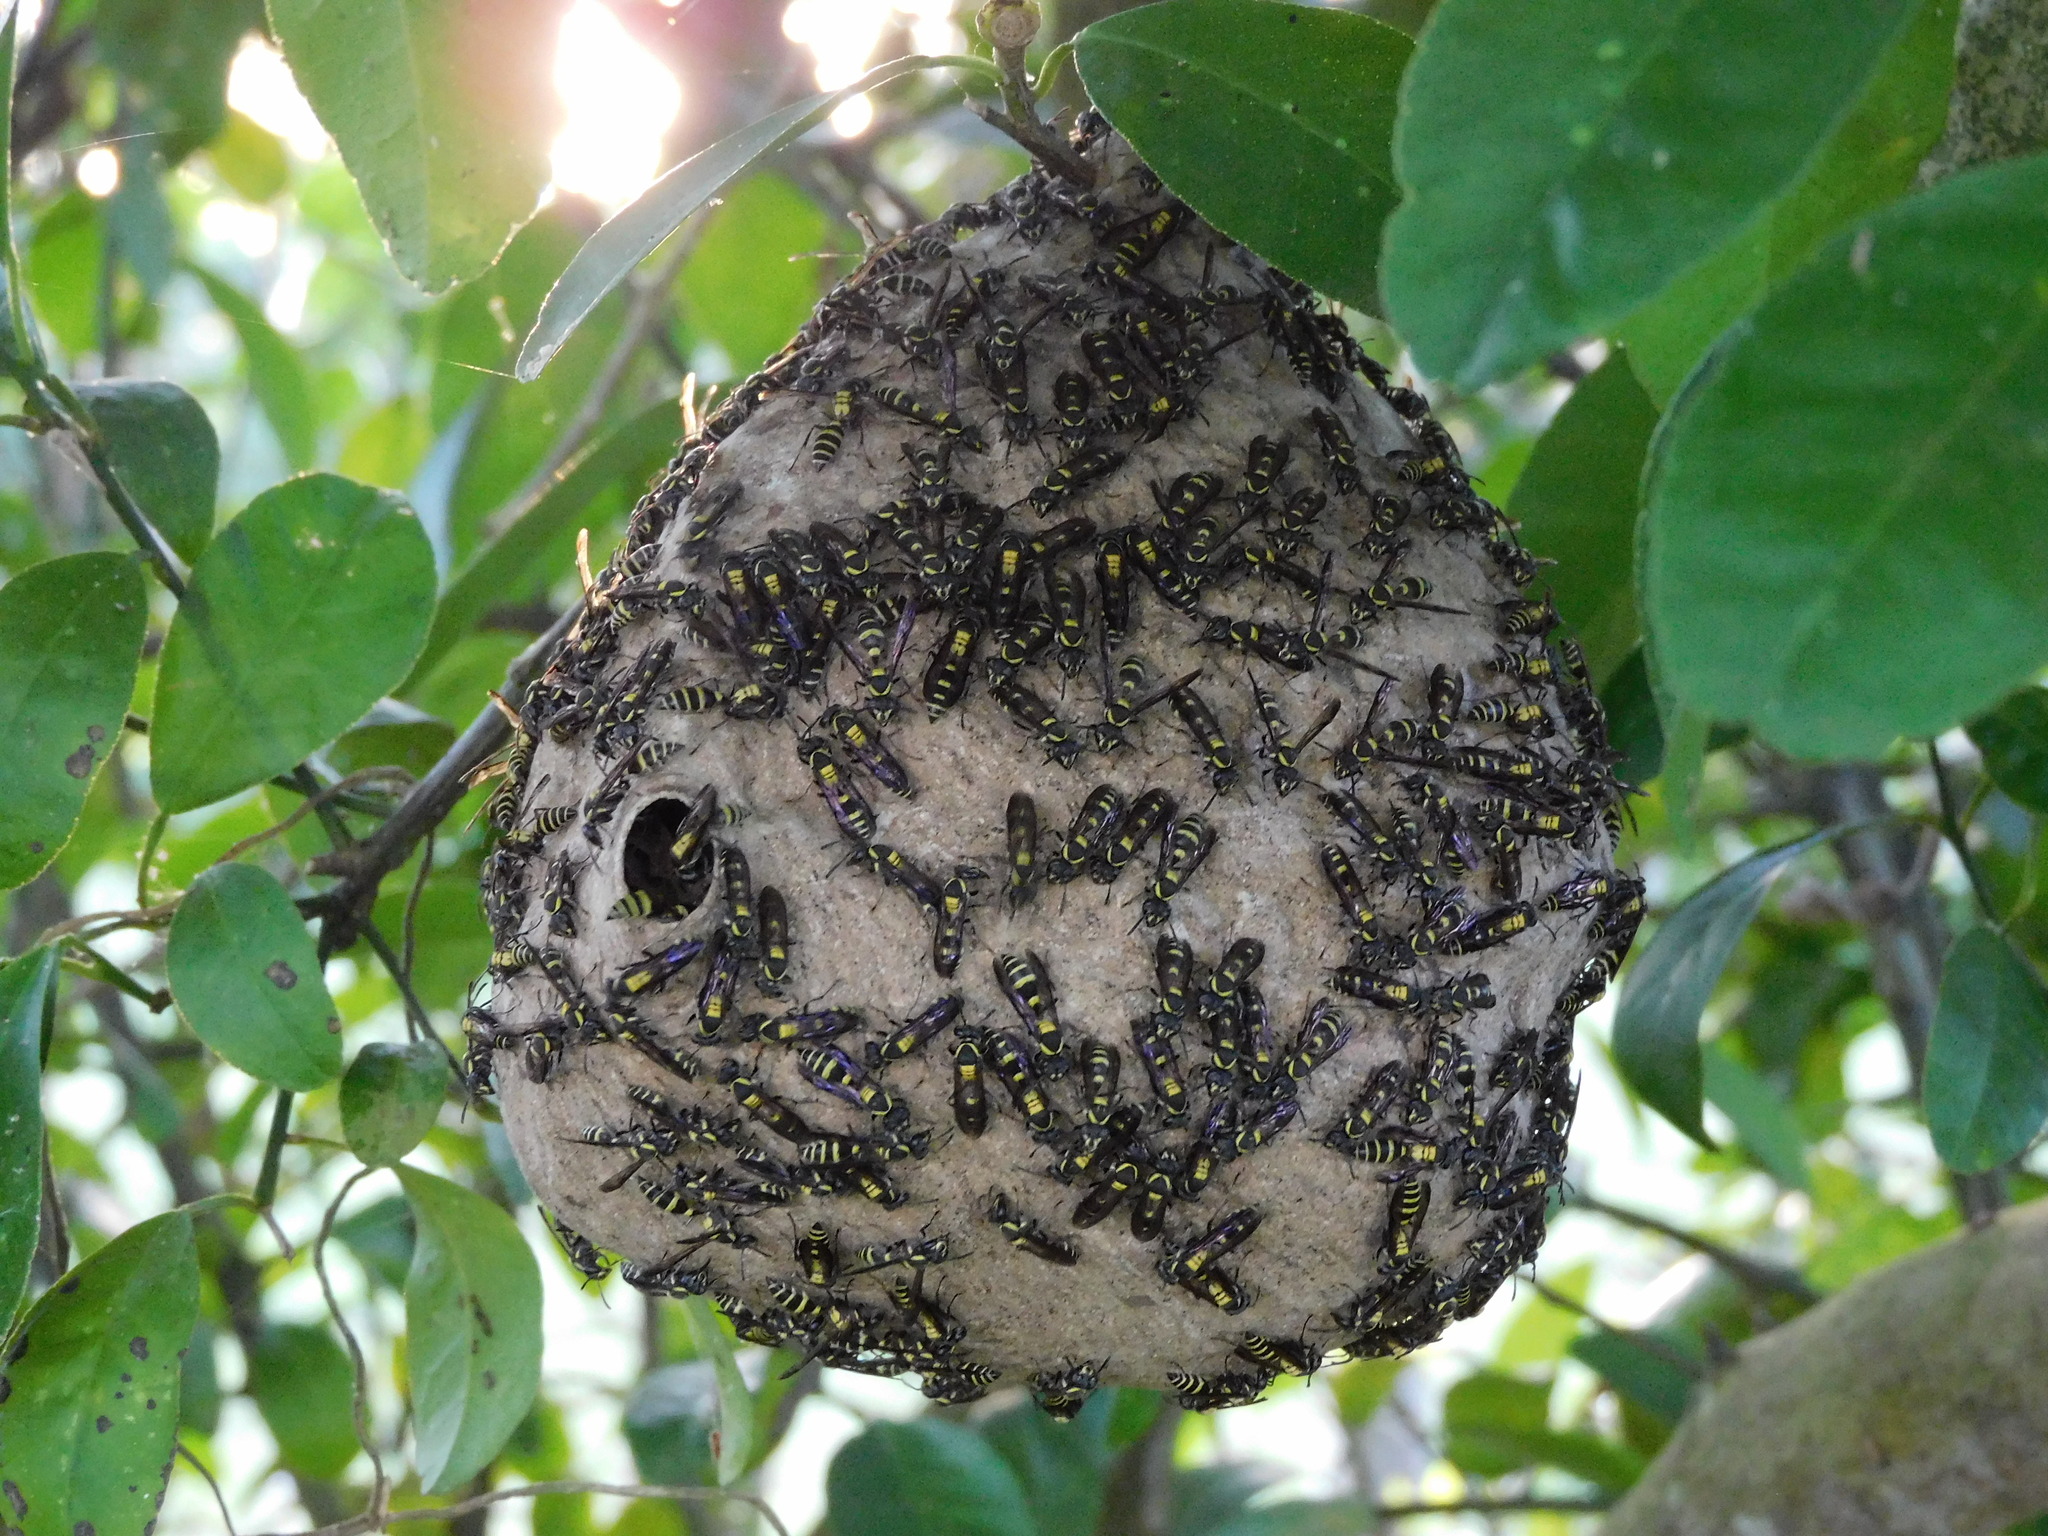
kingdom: Animalia
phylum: Arthropoda
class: Insecta
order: Hymenoptera
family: Eumenidae
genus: Polybia
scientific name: Polybia occidentalis
